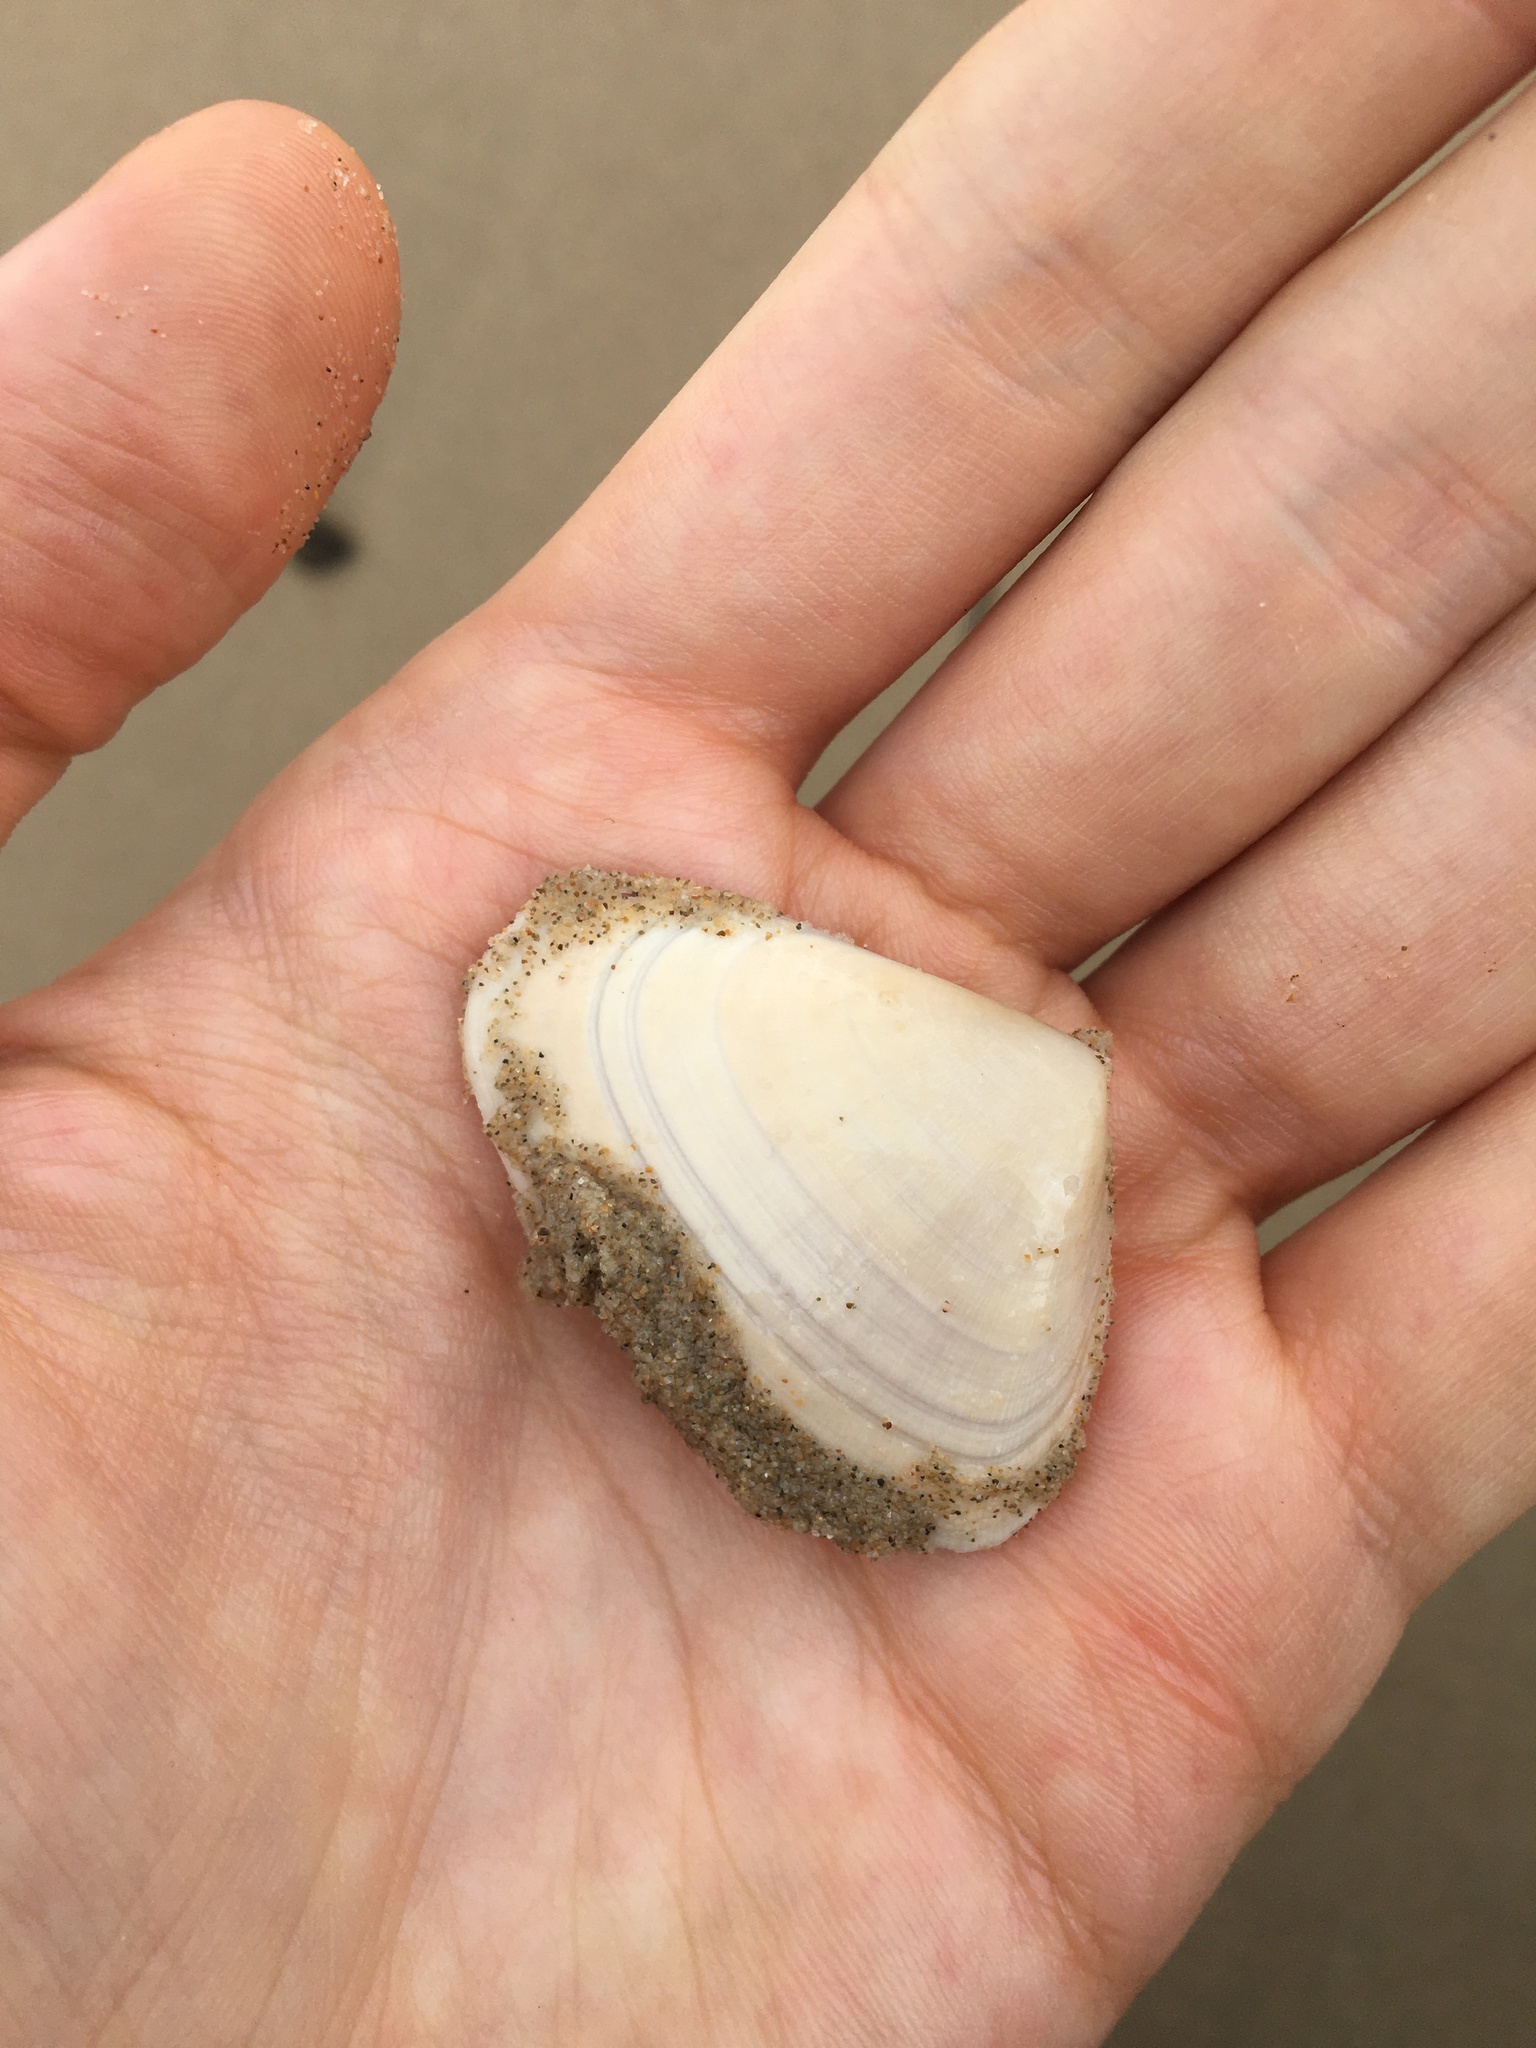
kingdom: Animalia
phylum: Mollusca
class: Bivalvia
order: Cardiida
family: Donacidae
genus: Latona
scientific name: Latona deltoides
